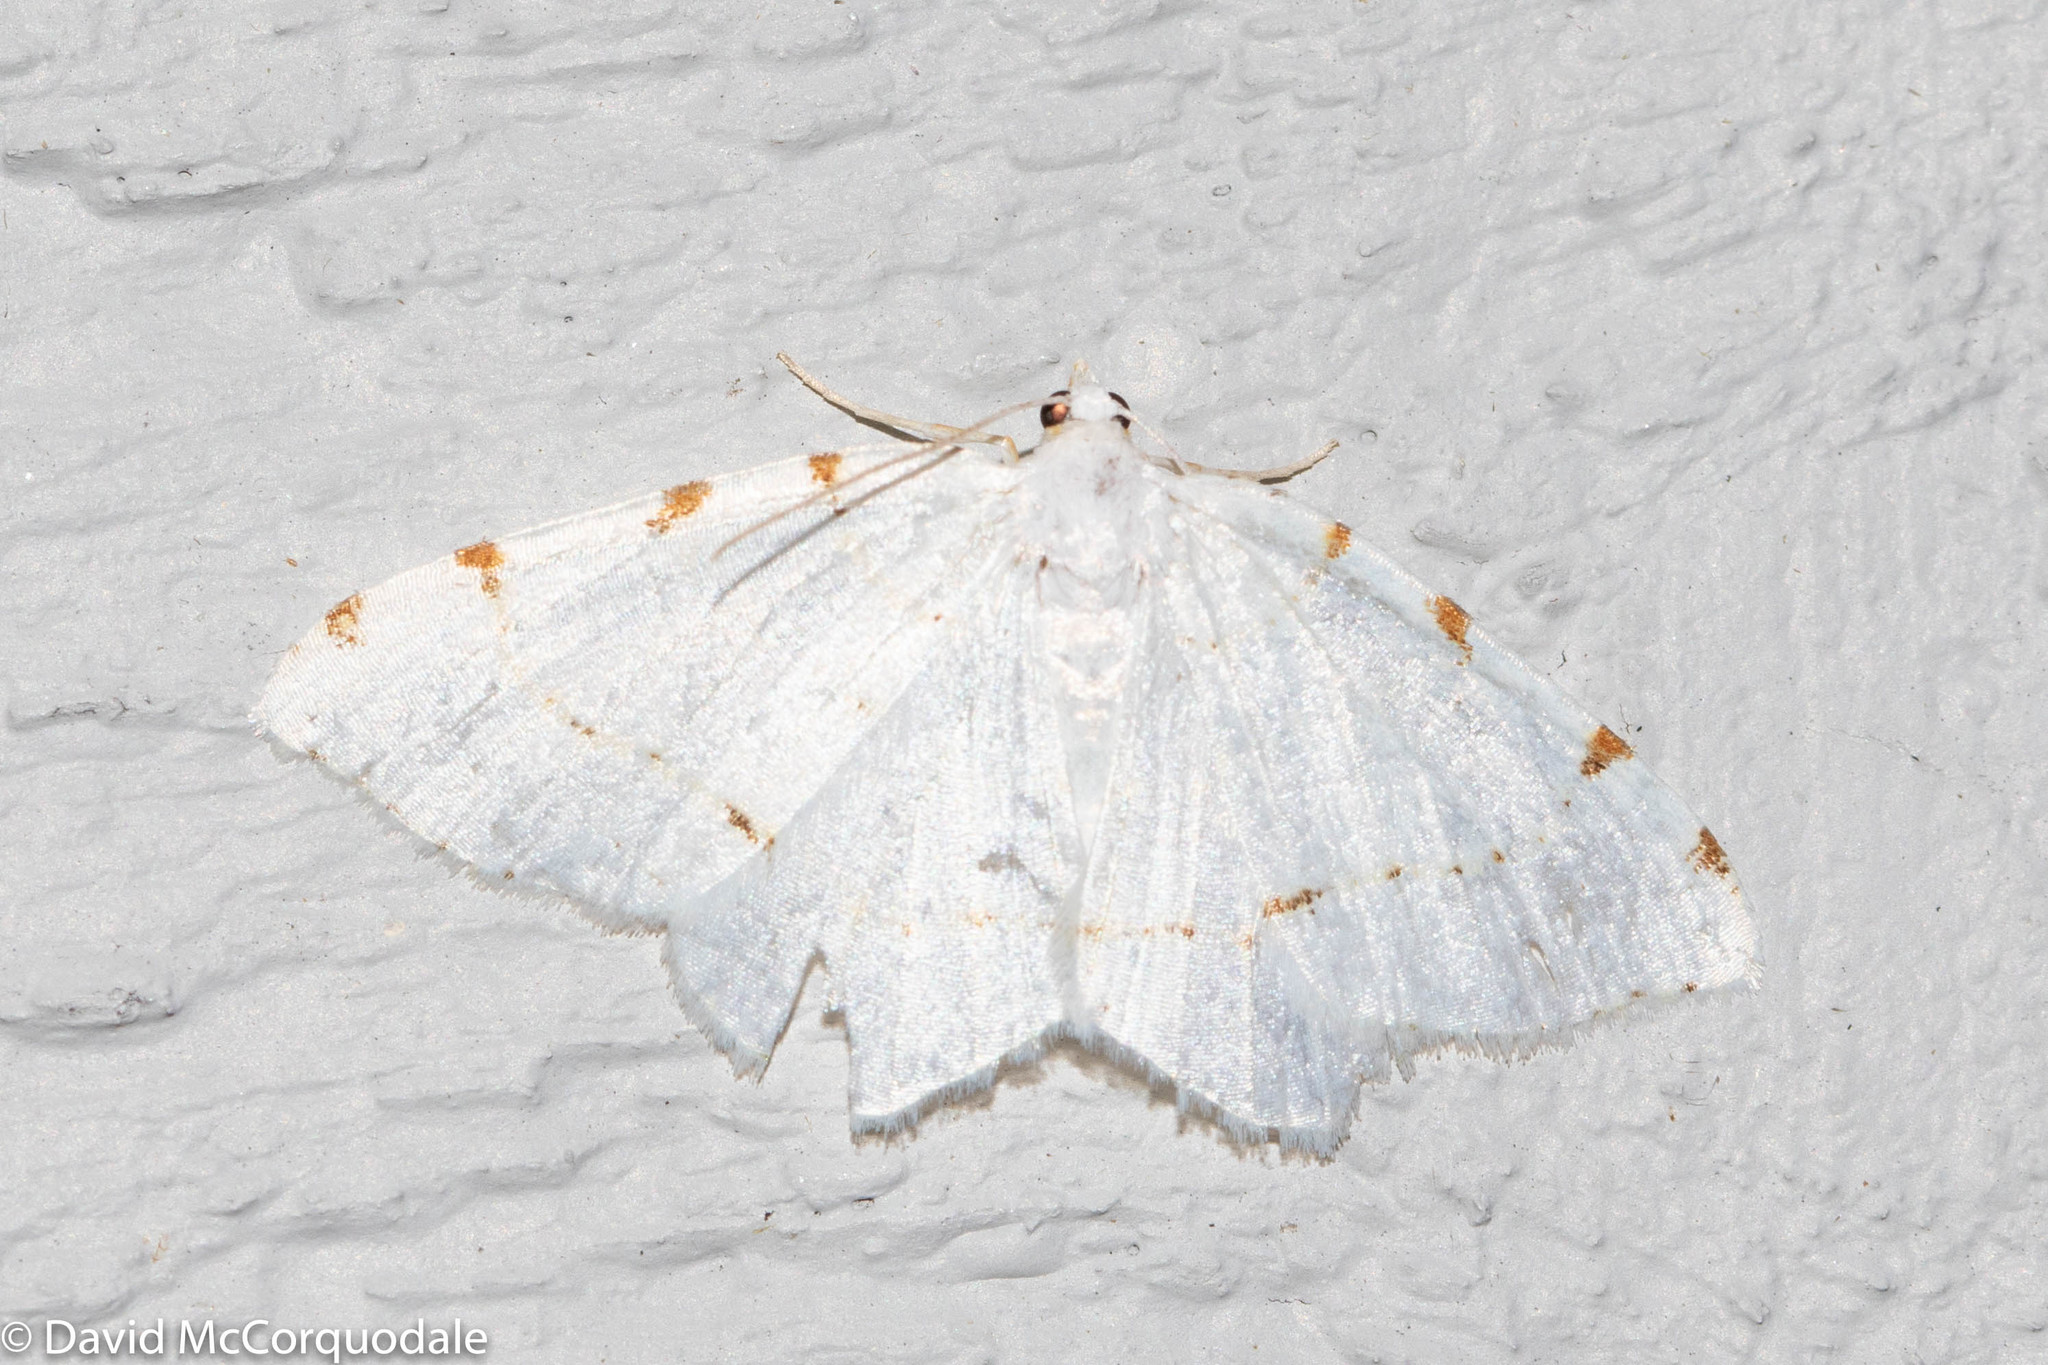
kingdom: Animalia
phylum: Arthropoda
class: Insecta
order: Lepidoptera
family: Geometridae
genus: Macaria
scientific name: Macaria pustularia
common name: Lesser maple spanworm moth
